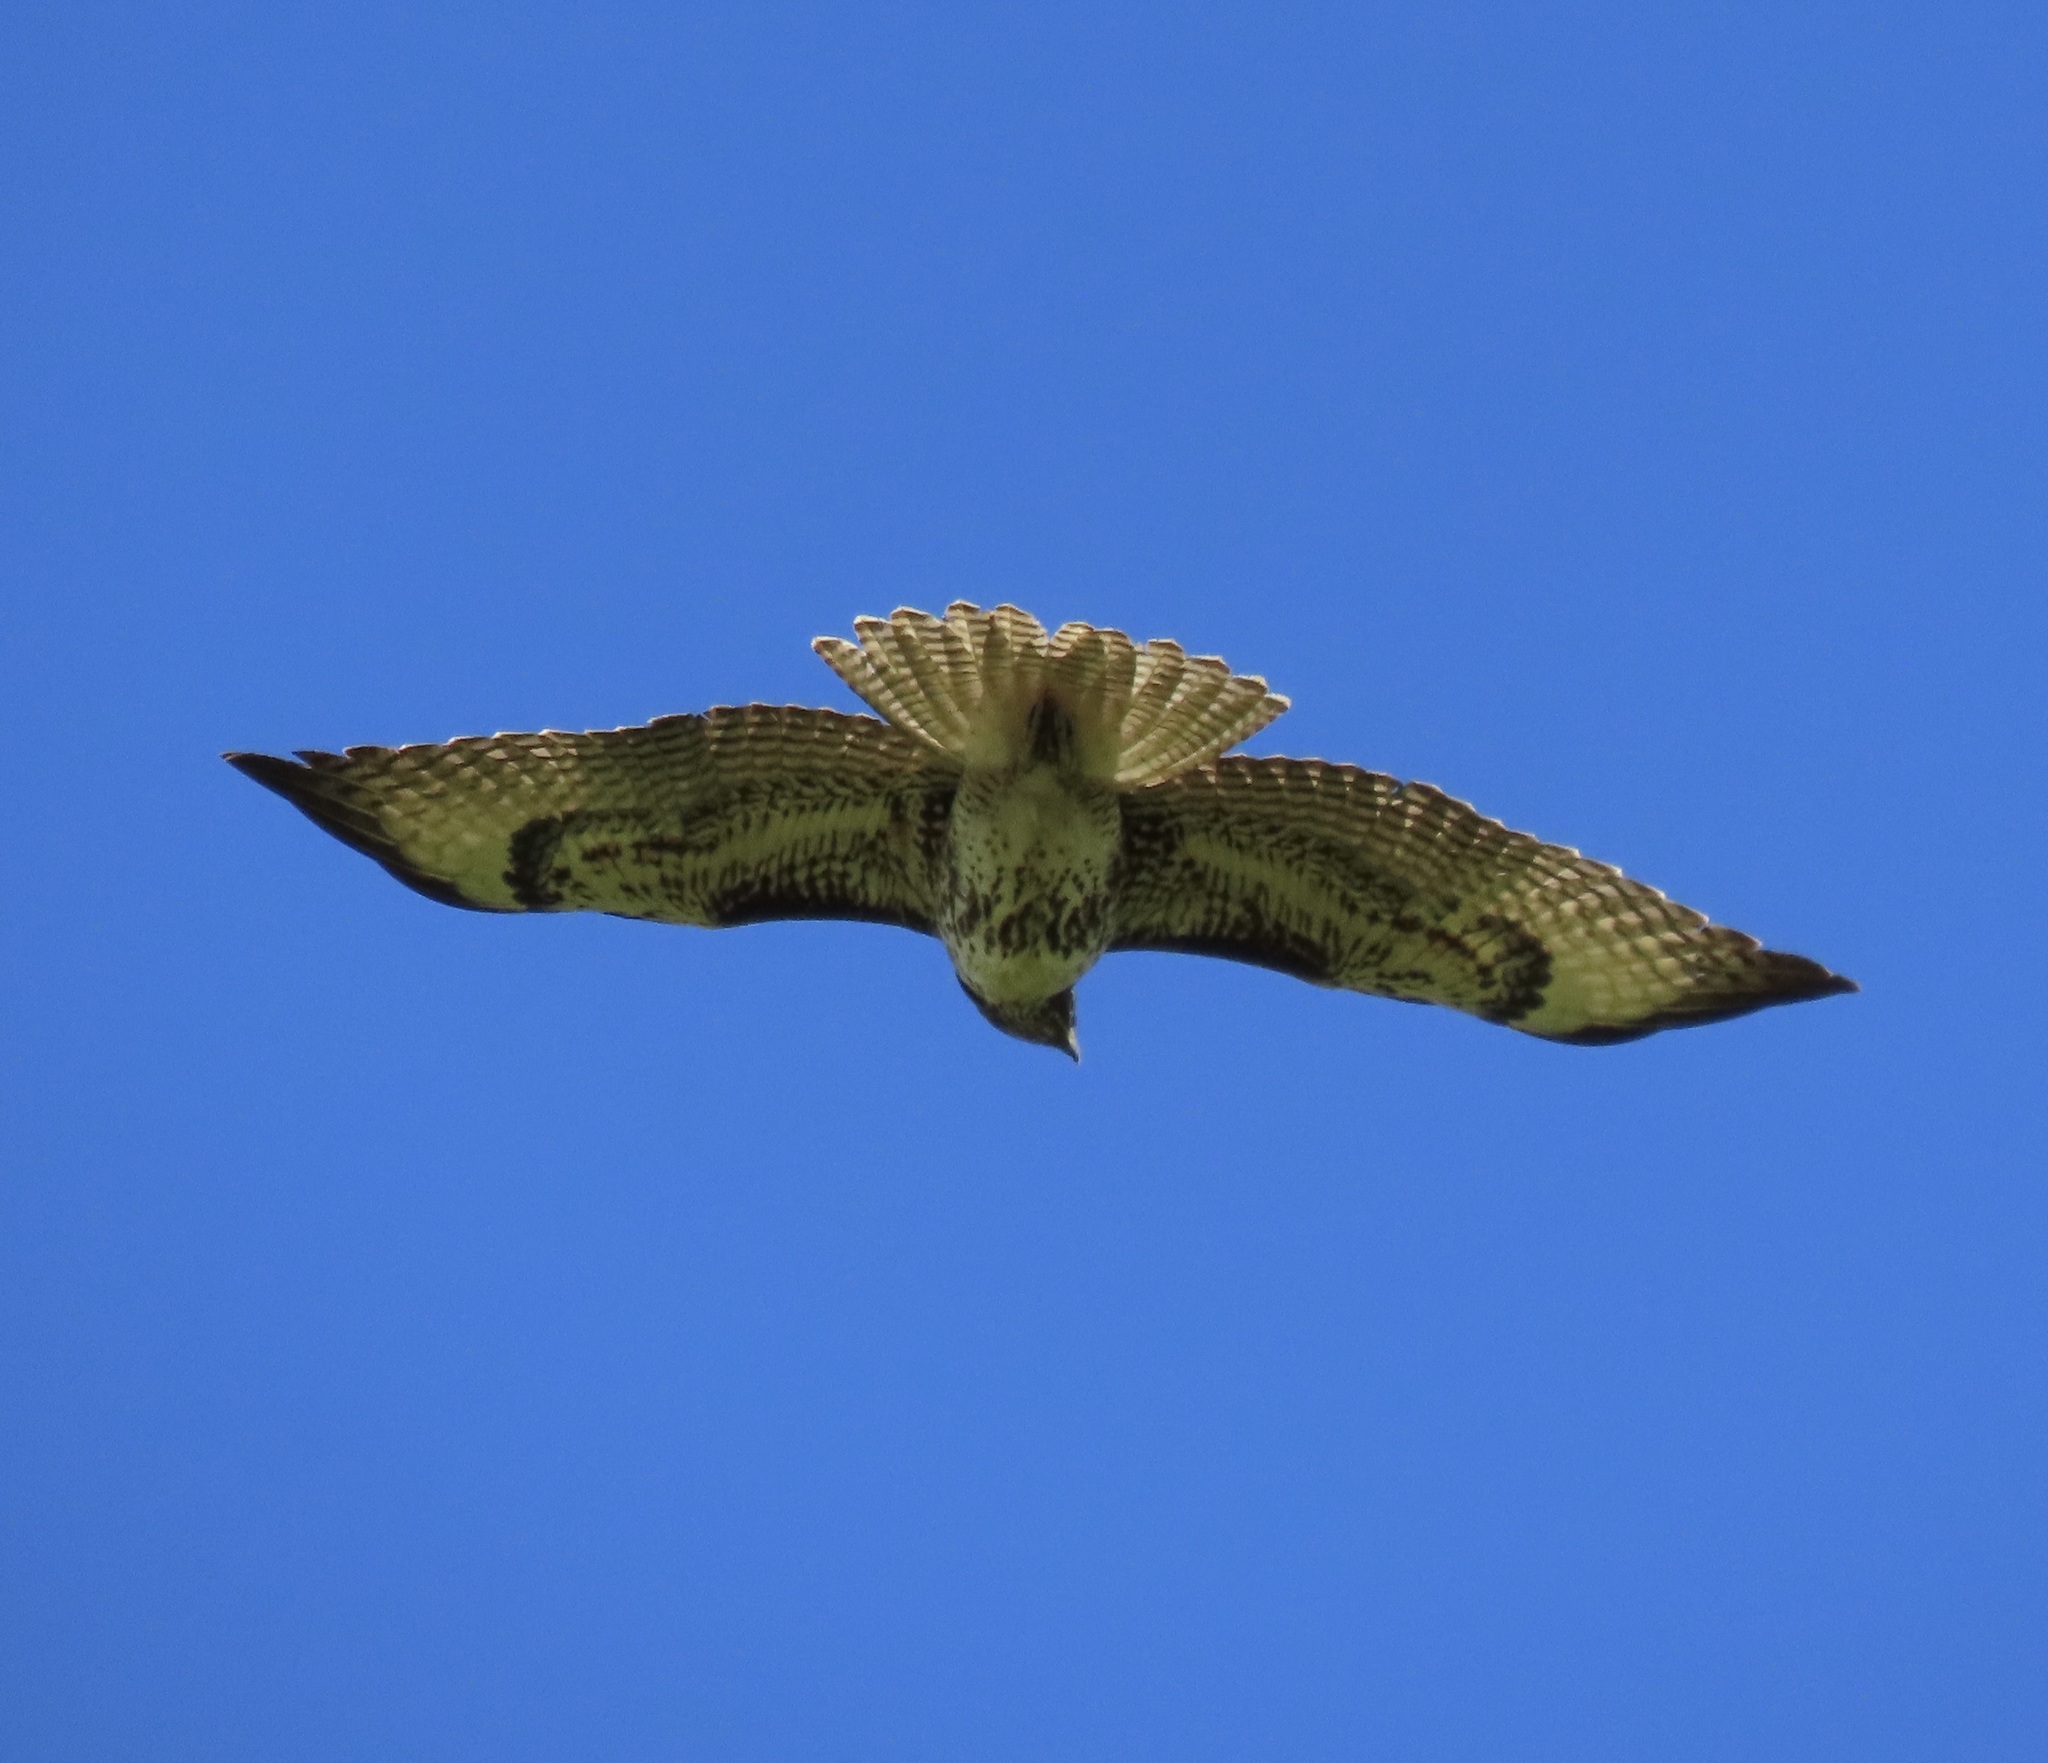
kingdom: Animalia
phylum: Chordata
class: Aves
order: Accipitriformes
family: Accipitridae
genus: Buteo
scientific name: Buteo jamaicensis
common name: Red-tailed hawk
